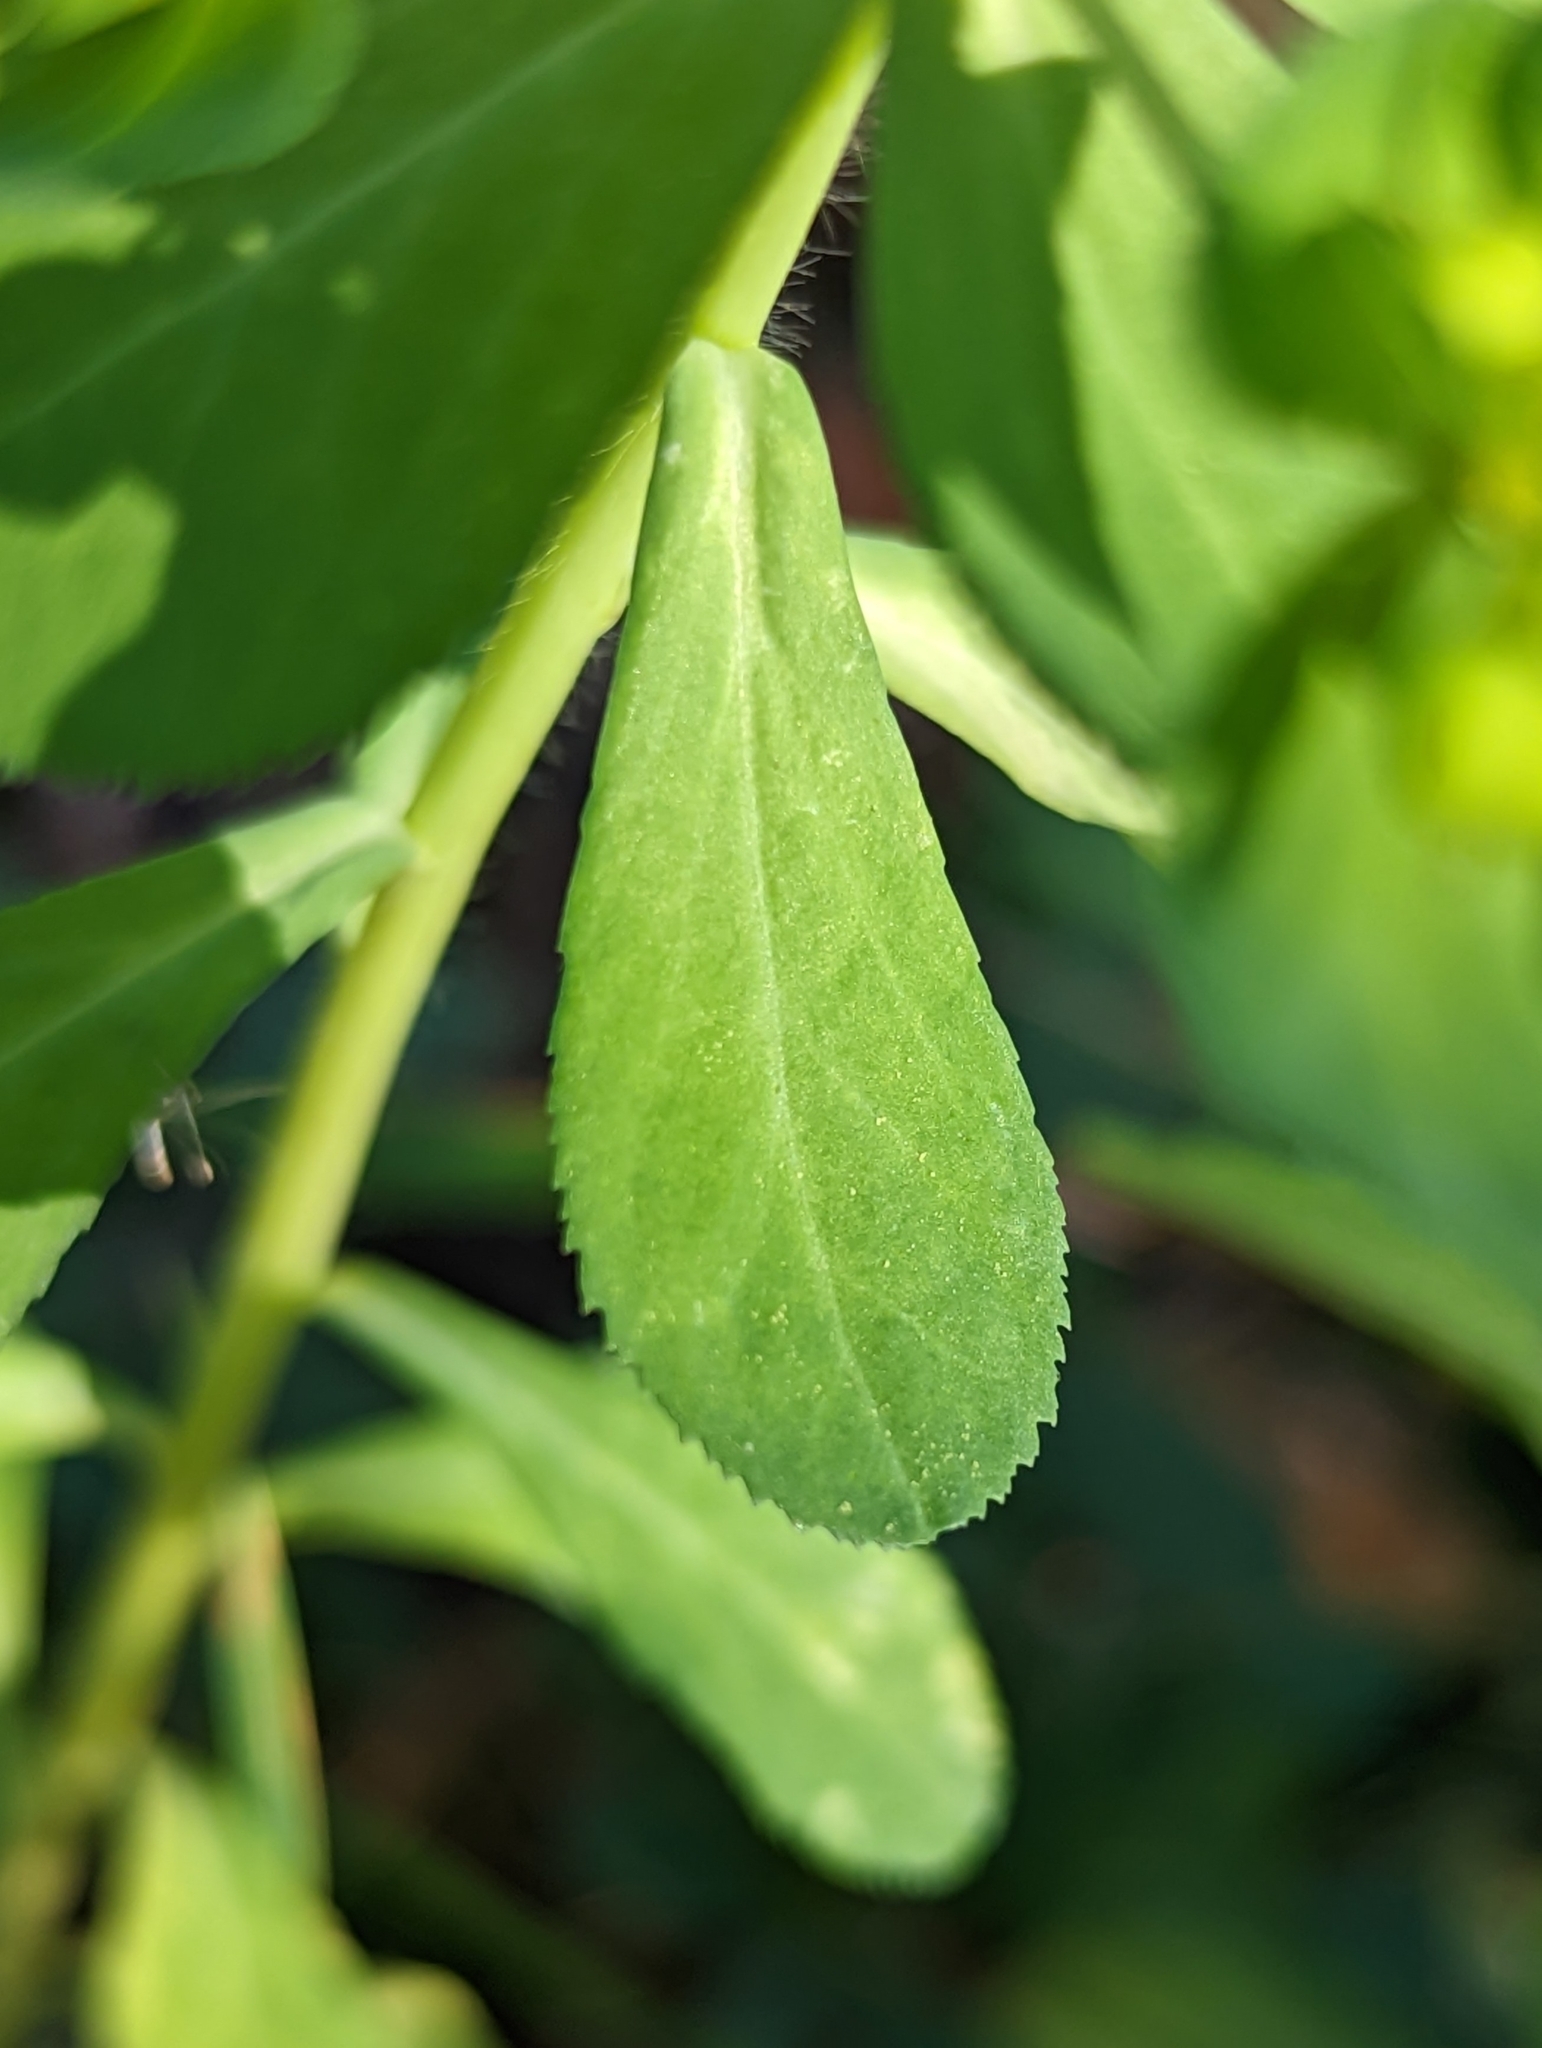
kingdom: Plantae
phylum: Tracheophyta
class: Magnoliopsida
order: Malpighiales
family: Euphorbiaceae
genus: Euphorbia
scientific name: Euphorbia helioscopia
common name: Sun spurge
